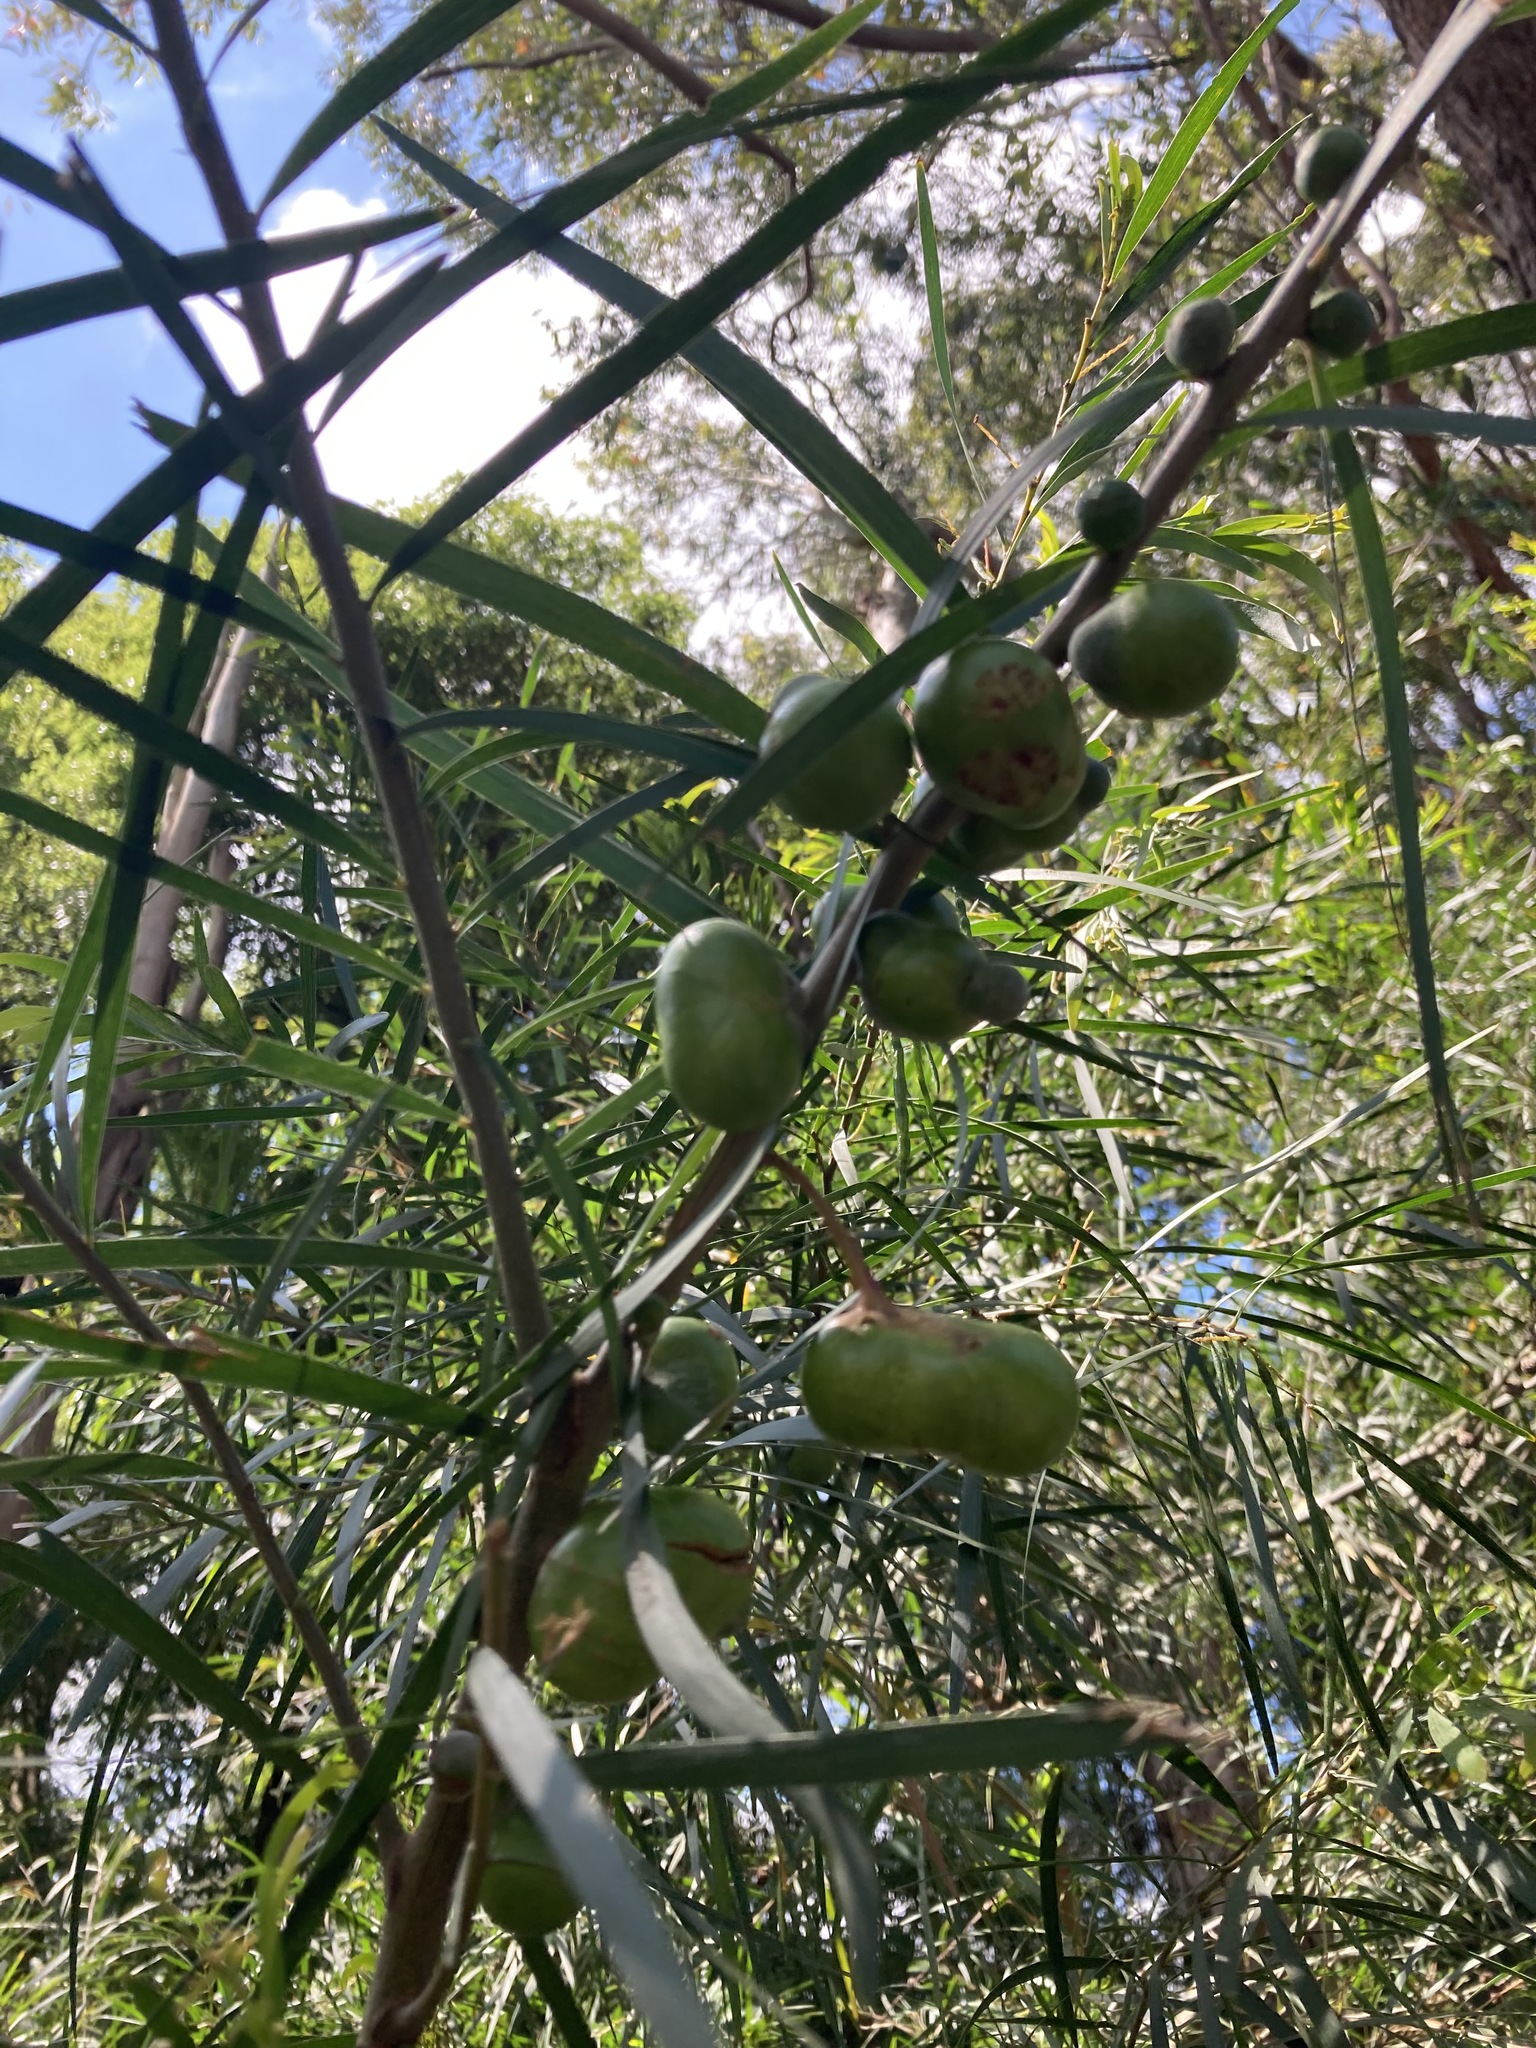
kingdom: Animalia
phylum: Arthropoda
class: Insecta
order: Hymenoptera
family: Pteromalidae
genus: Trichilogaster
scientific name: Trichilogaster acaciaelongifoliae
